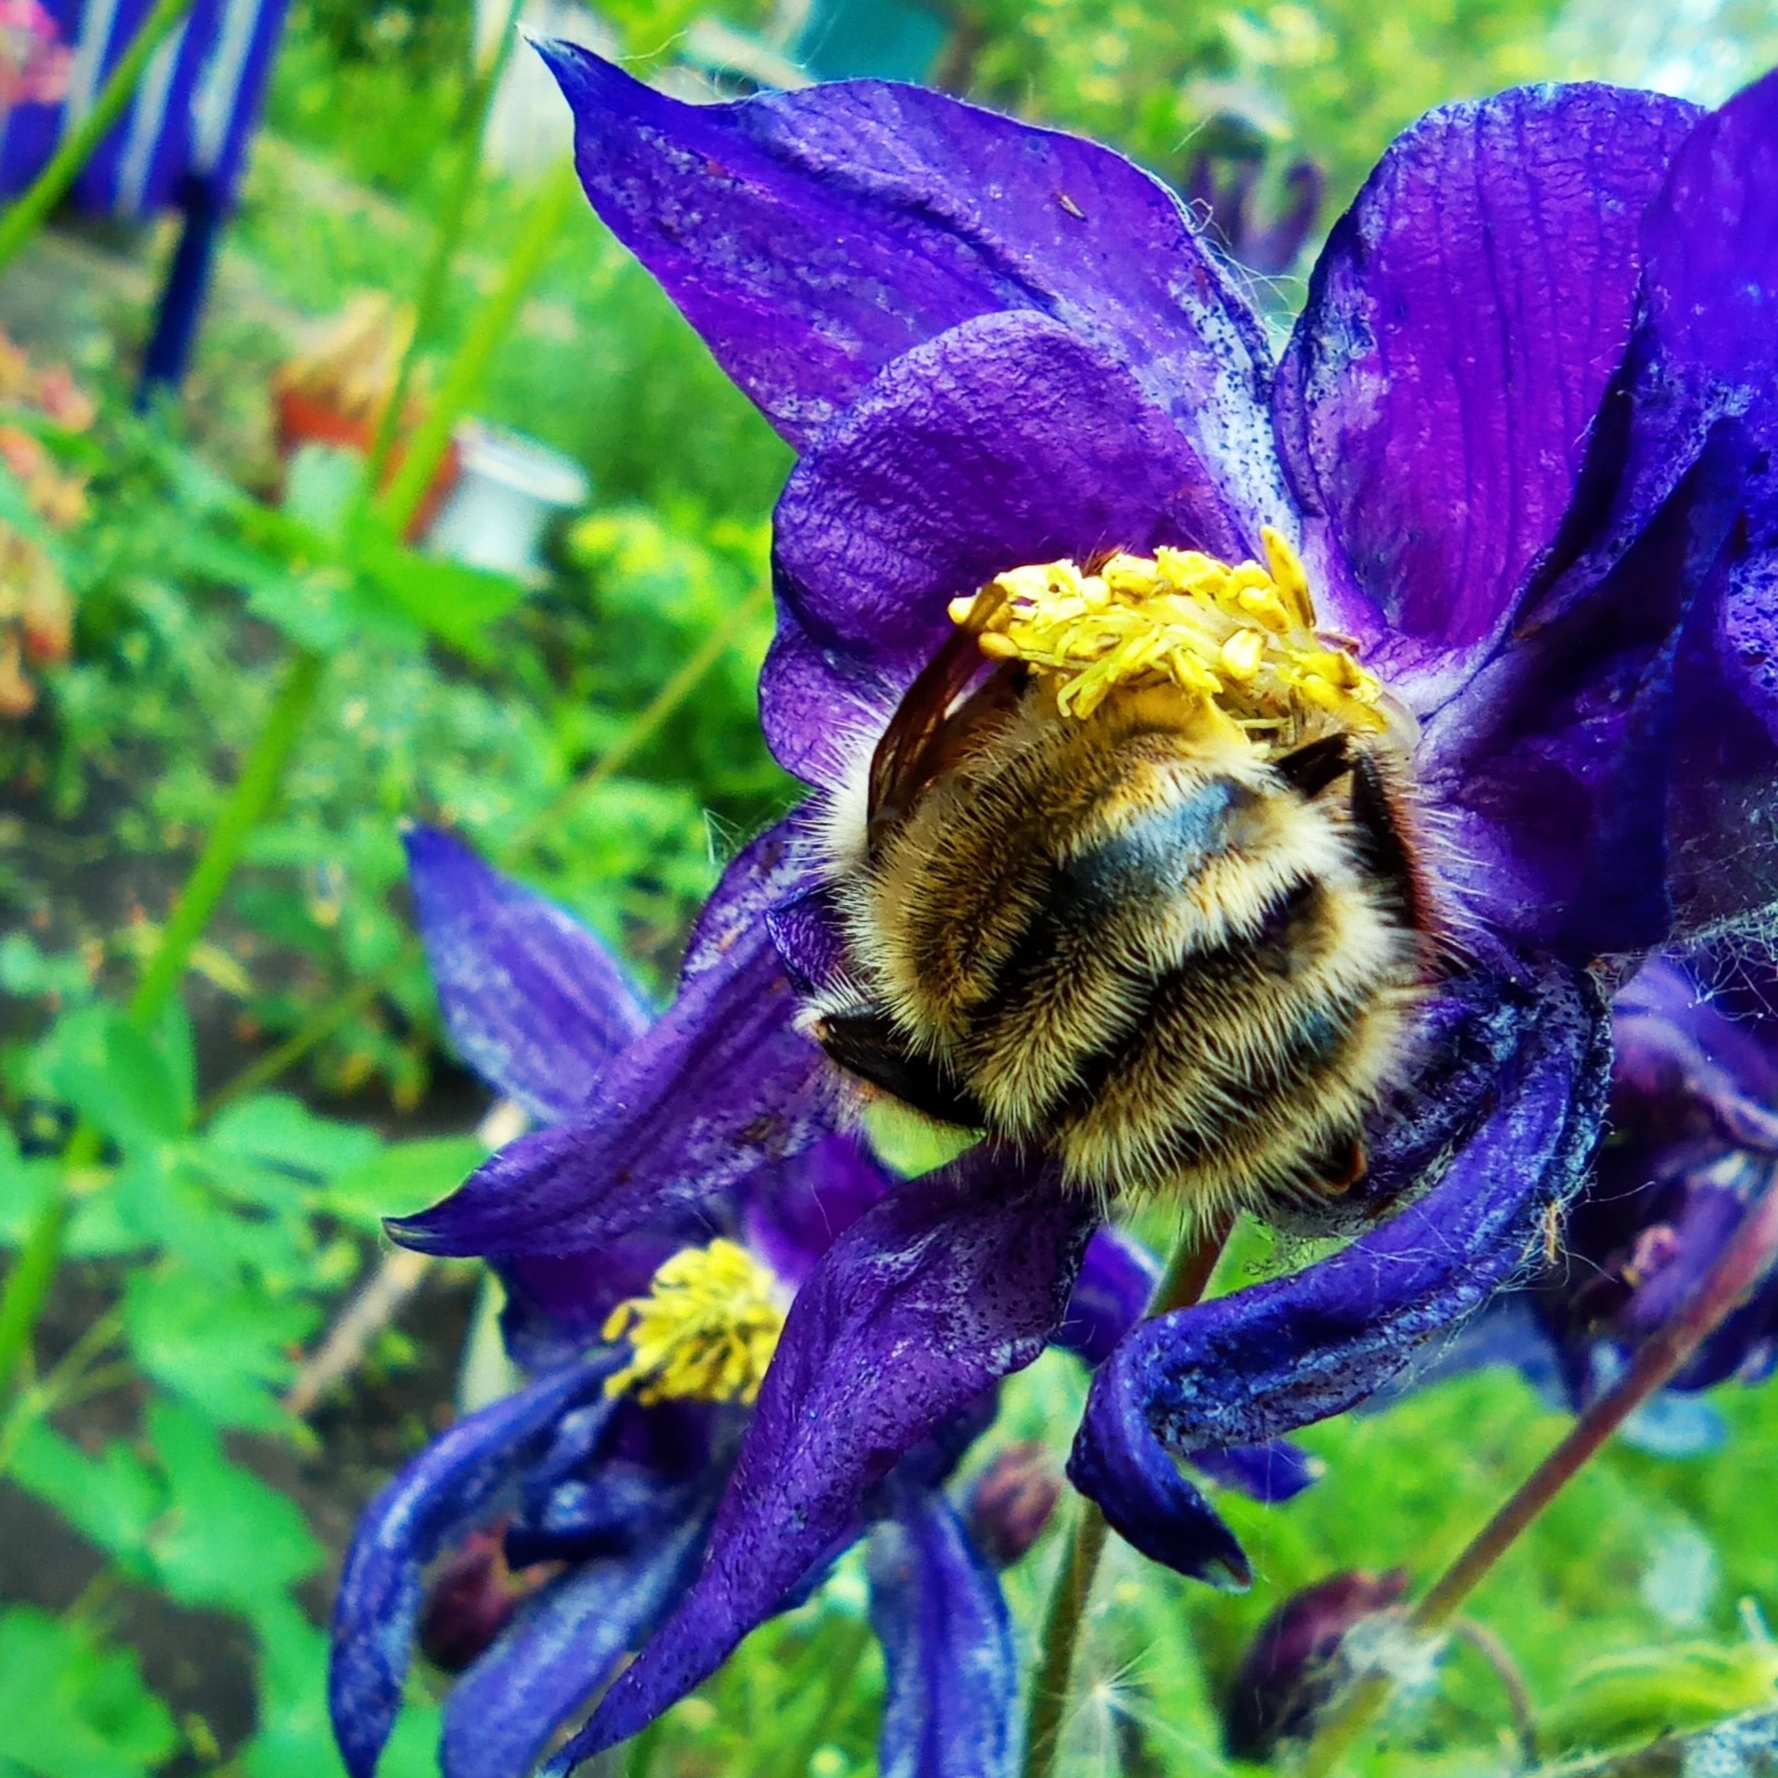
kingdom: Animalia
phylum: Arthropoda
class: Insecta
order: Hymenoptera
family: Apidae
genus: Bombus
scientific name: Bombus veteranus
